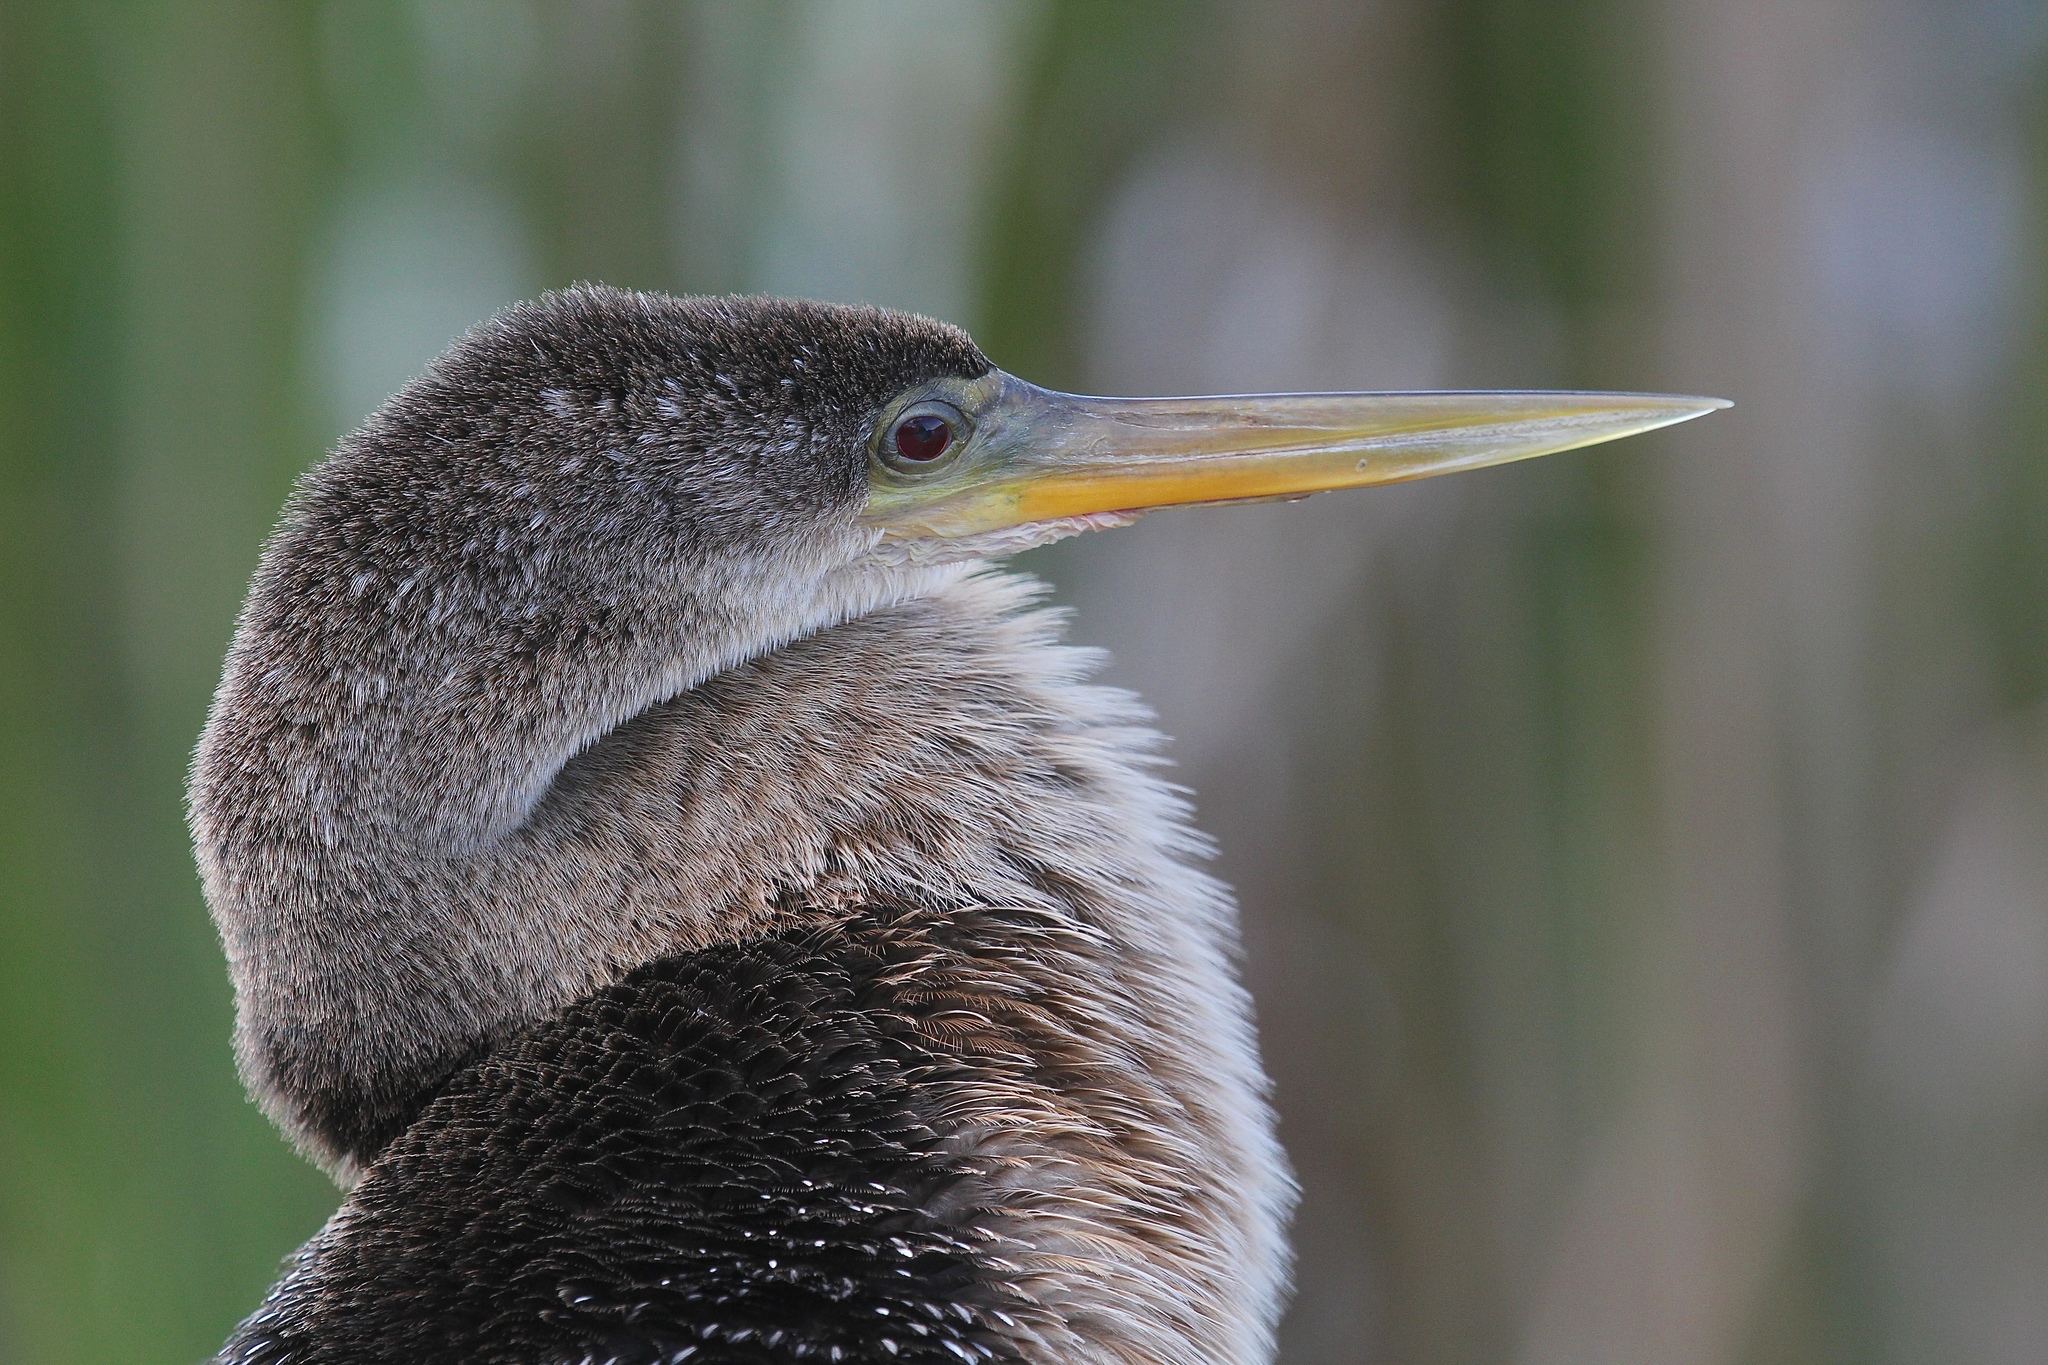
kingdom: Animalia
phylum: Chordata
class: Aves
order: Suliformes
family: Anhingidae
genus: Anhinga
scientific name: Anhinga anhinga
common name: Anhinga
